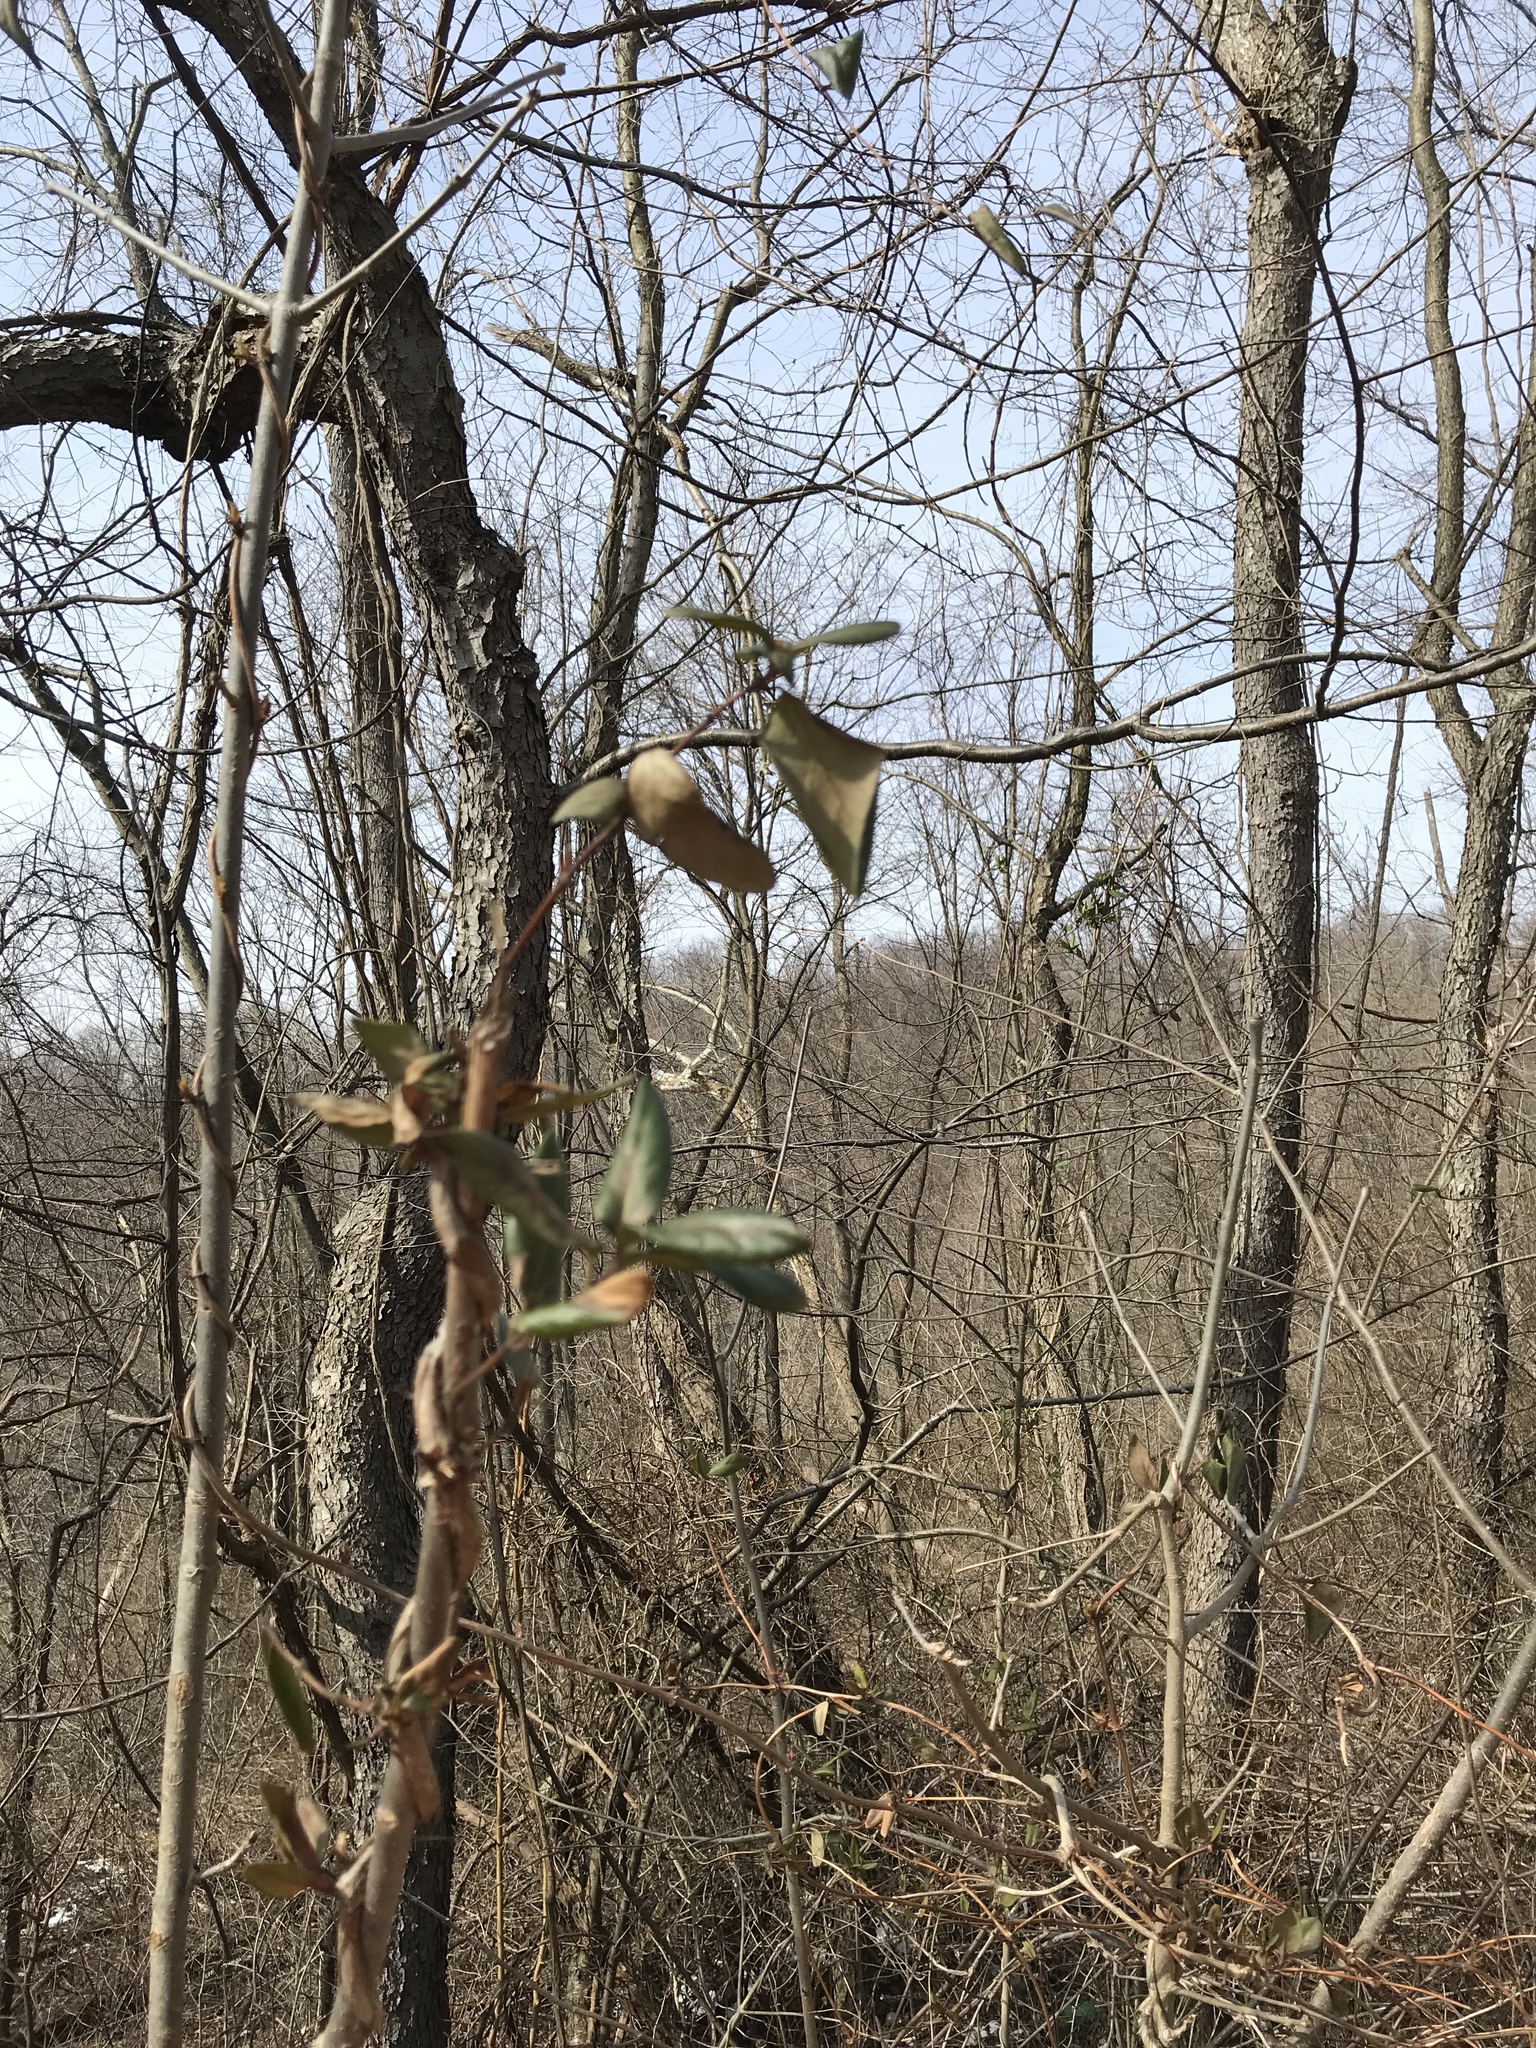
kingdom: Plantae
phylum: Tracheophyta
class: Magnoliopsida
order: Dipsacales
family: Caprifoliaceae
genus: Lonicera
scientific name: Lonicera japonica
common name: Japanese honeysuckle
